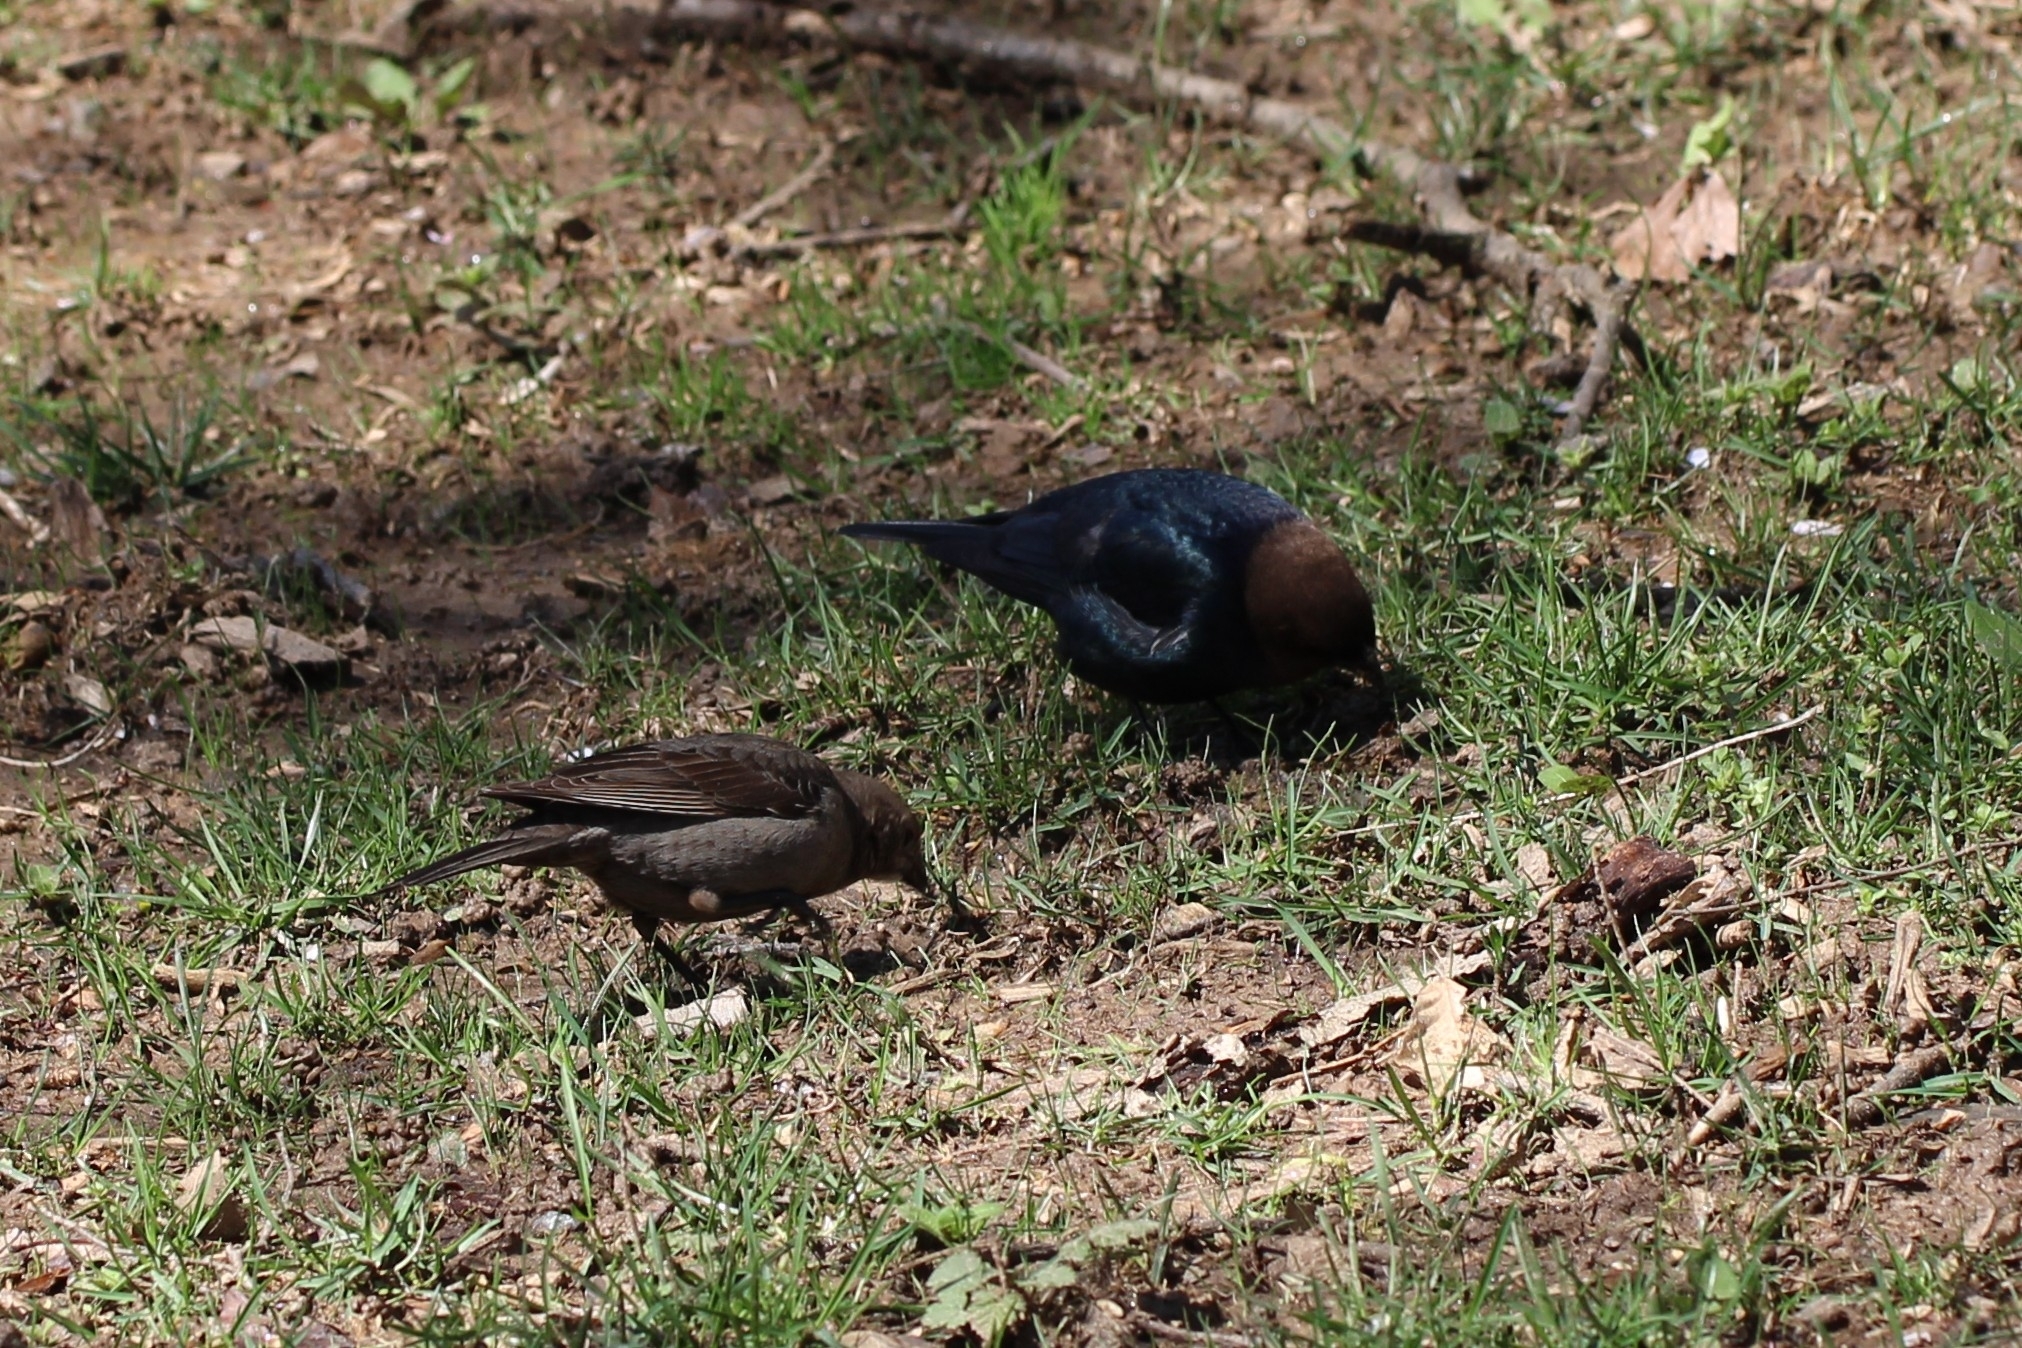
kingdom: Animalia
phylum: Chordata
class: Aves
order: Passeriformes
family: Icteridae
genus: Molothrus
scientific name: Molothrus ater
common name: Brown-headed cowbird
